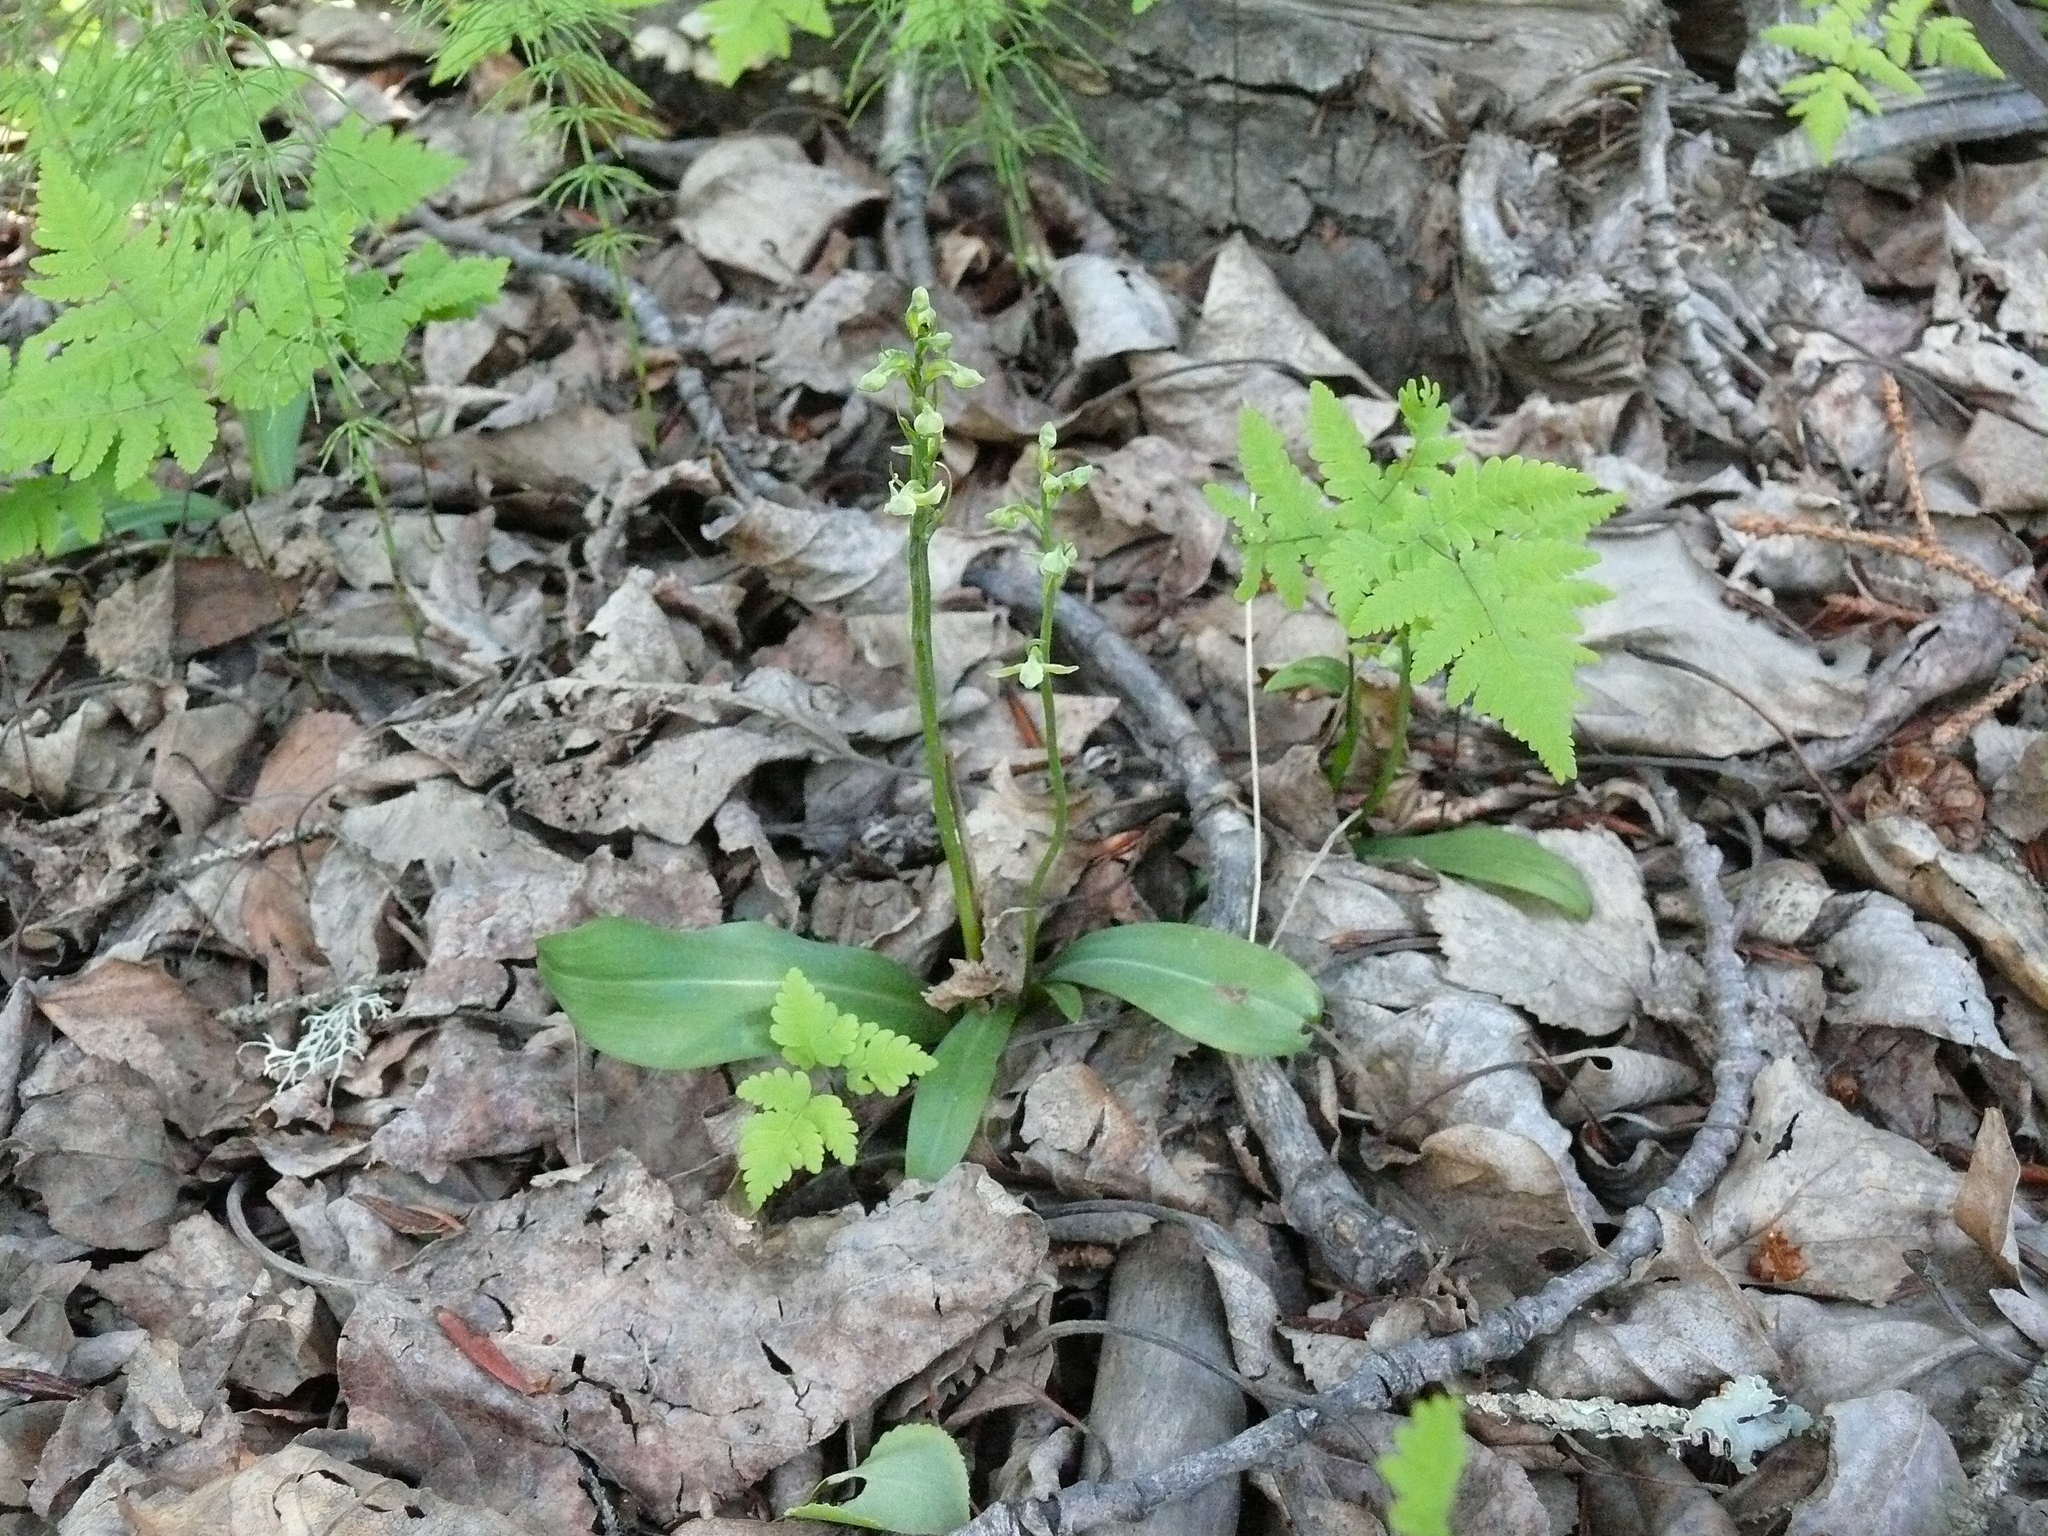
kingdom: Plantae
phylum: Tracheophyta
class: Liliopsida
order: Asparagales
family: Orchidaceae
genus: Platanthera
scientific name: Platanthera obtusata
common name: Blunt bog orchid
